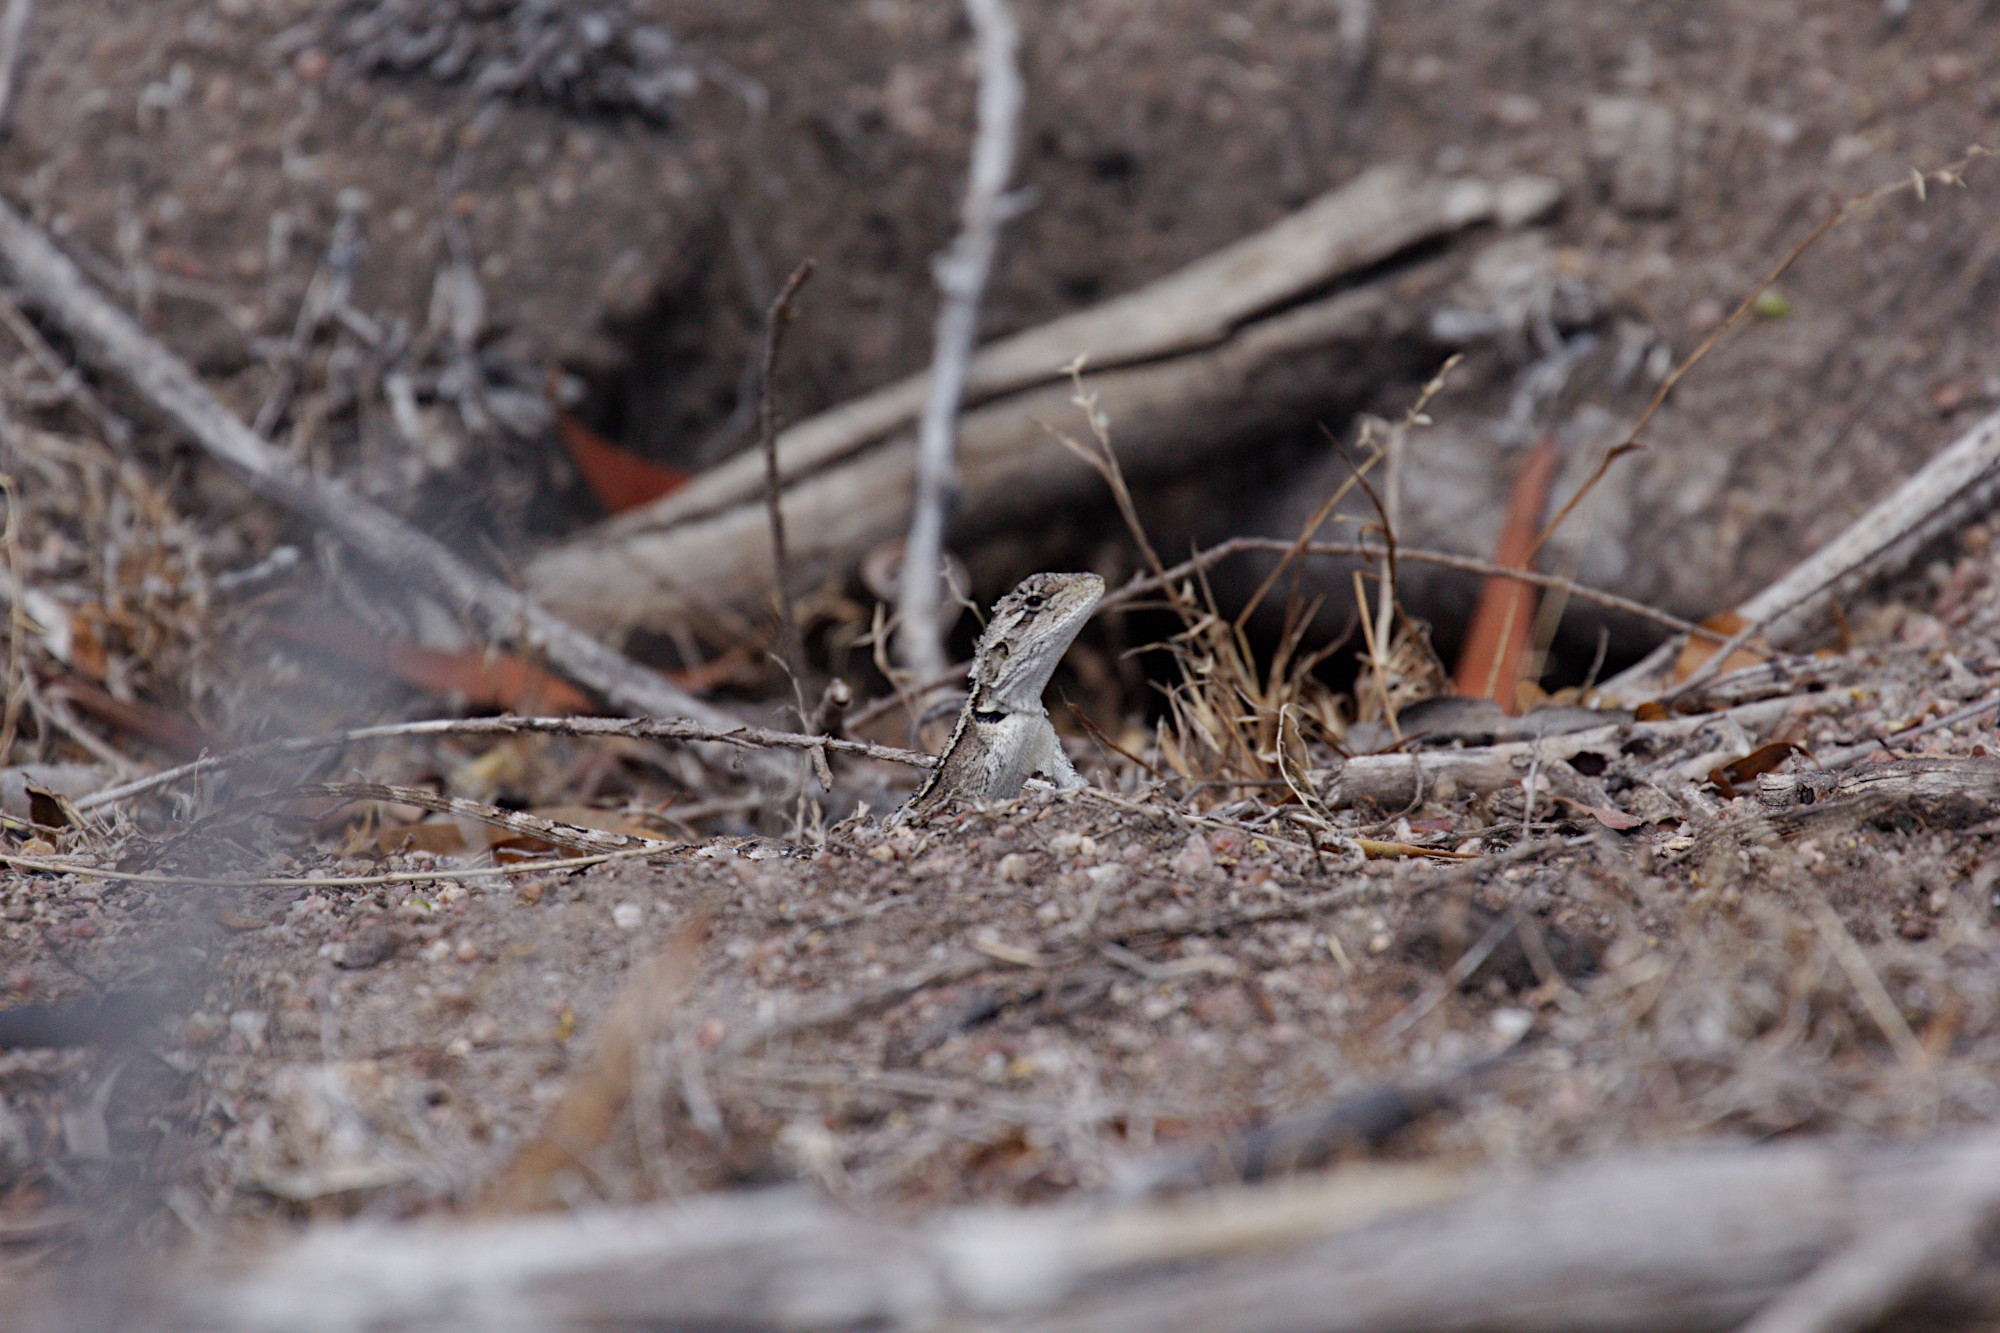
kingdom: Animalia
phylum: Chordata
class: Squamata
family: Agamidae
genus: Amphibolurus
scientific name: Amphibolurus muricatus
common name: Jacky lizard
